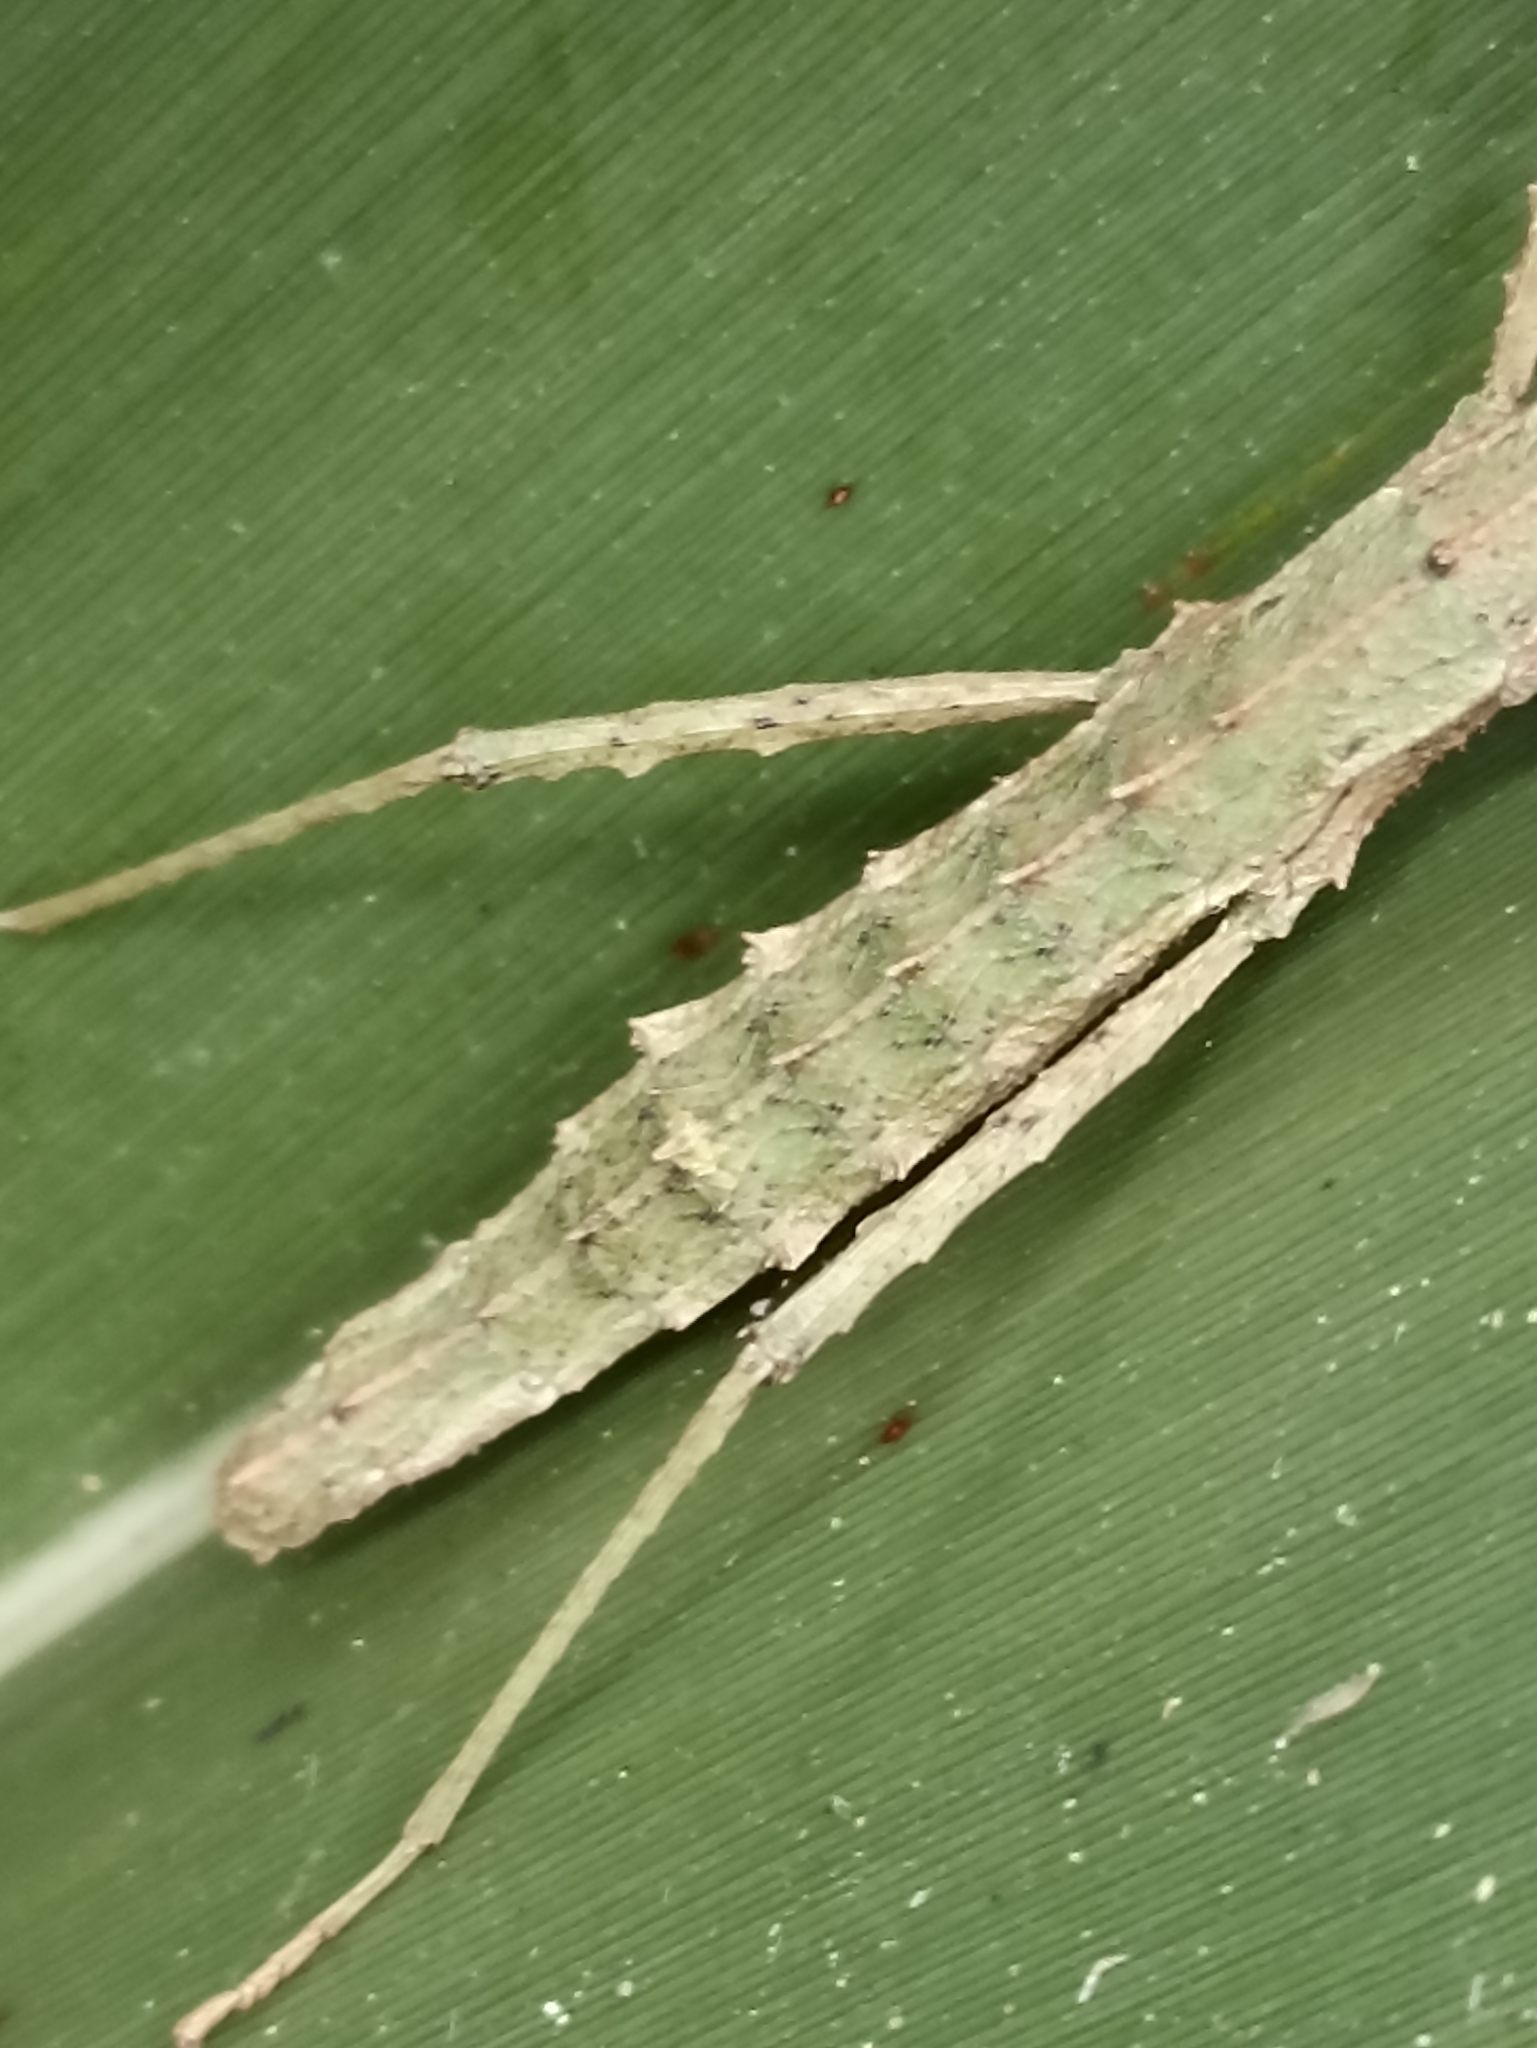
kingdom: Animalia
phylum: Arthropoda
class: Insecta
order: Phasmida
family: Phasmatidae
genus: Spinotectarchus
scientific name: Spinotectarchus acornutus
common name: The spiny ridge-backed stick insect
